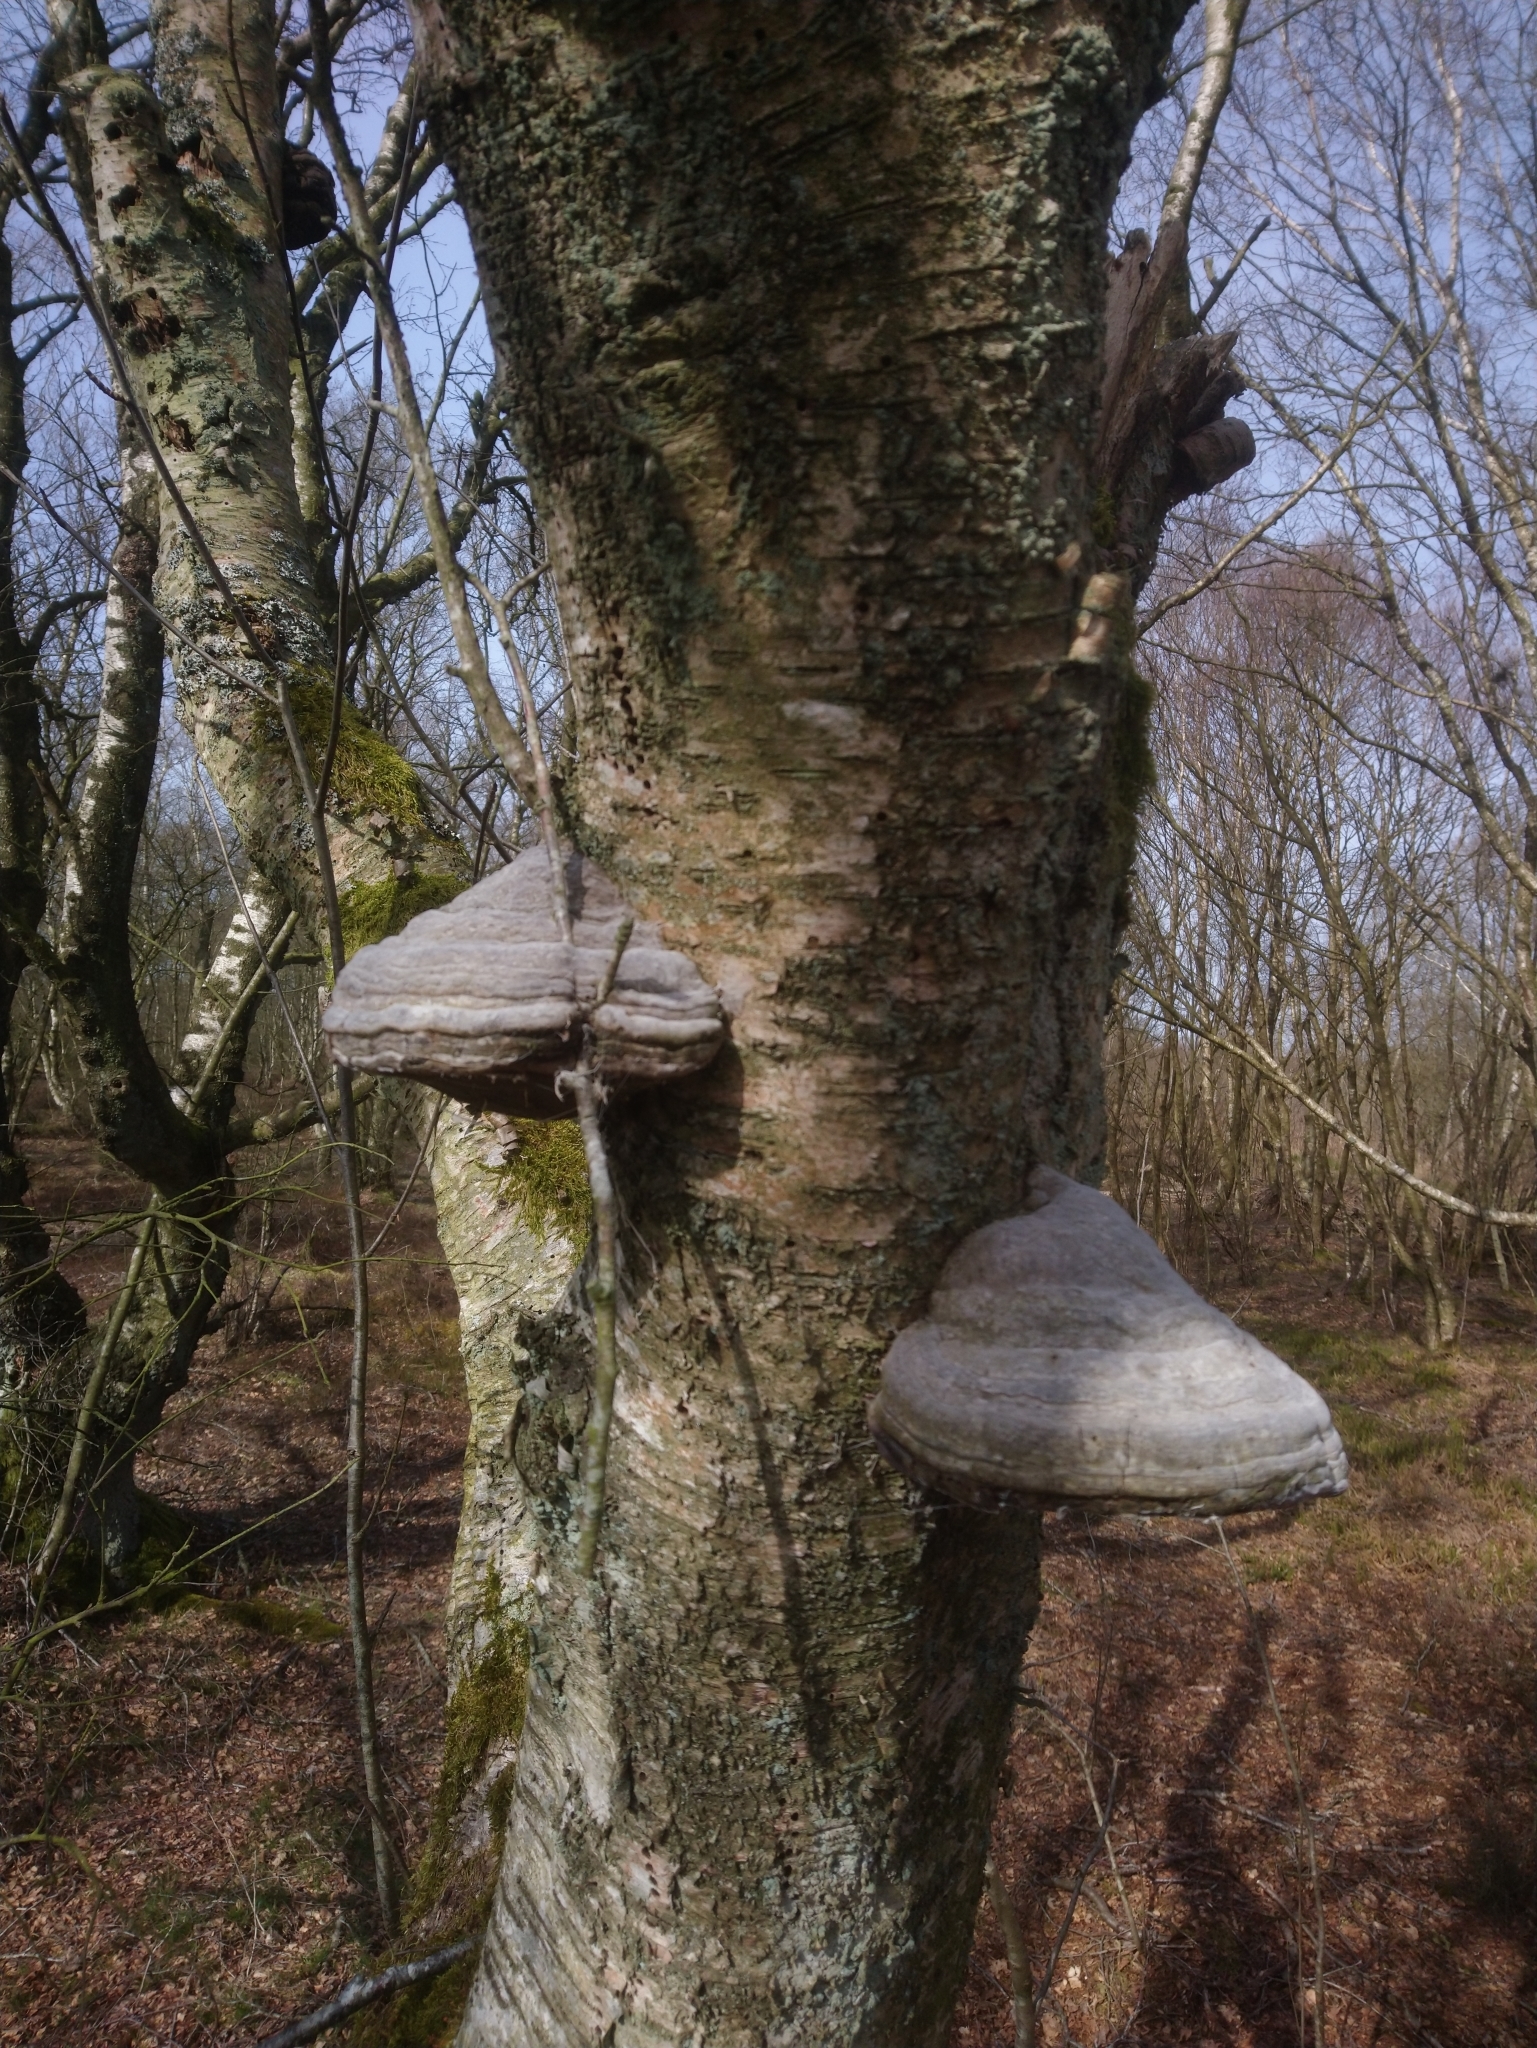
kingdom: Fungi
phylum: Basidiomycota
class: Agaricomycetes
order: Polyporales
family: Polyporaceae
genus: Fomes
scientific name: Fomes fomentarius
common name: Hoof fungus
